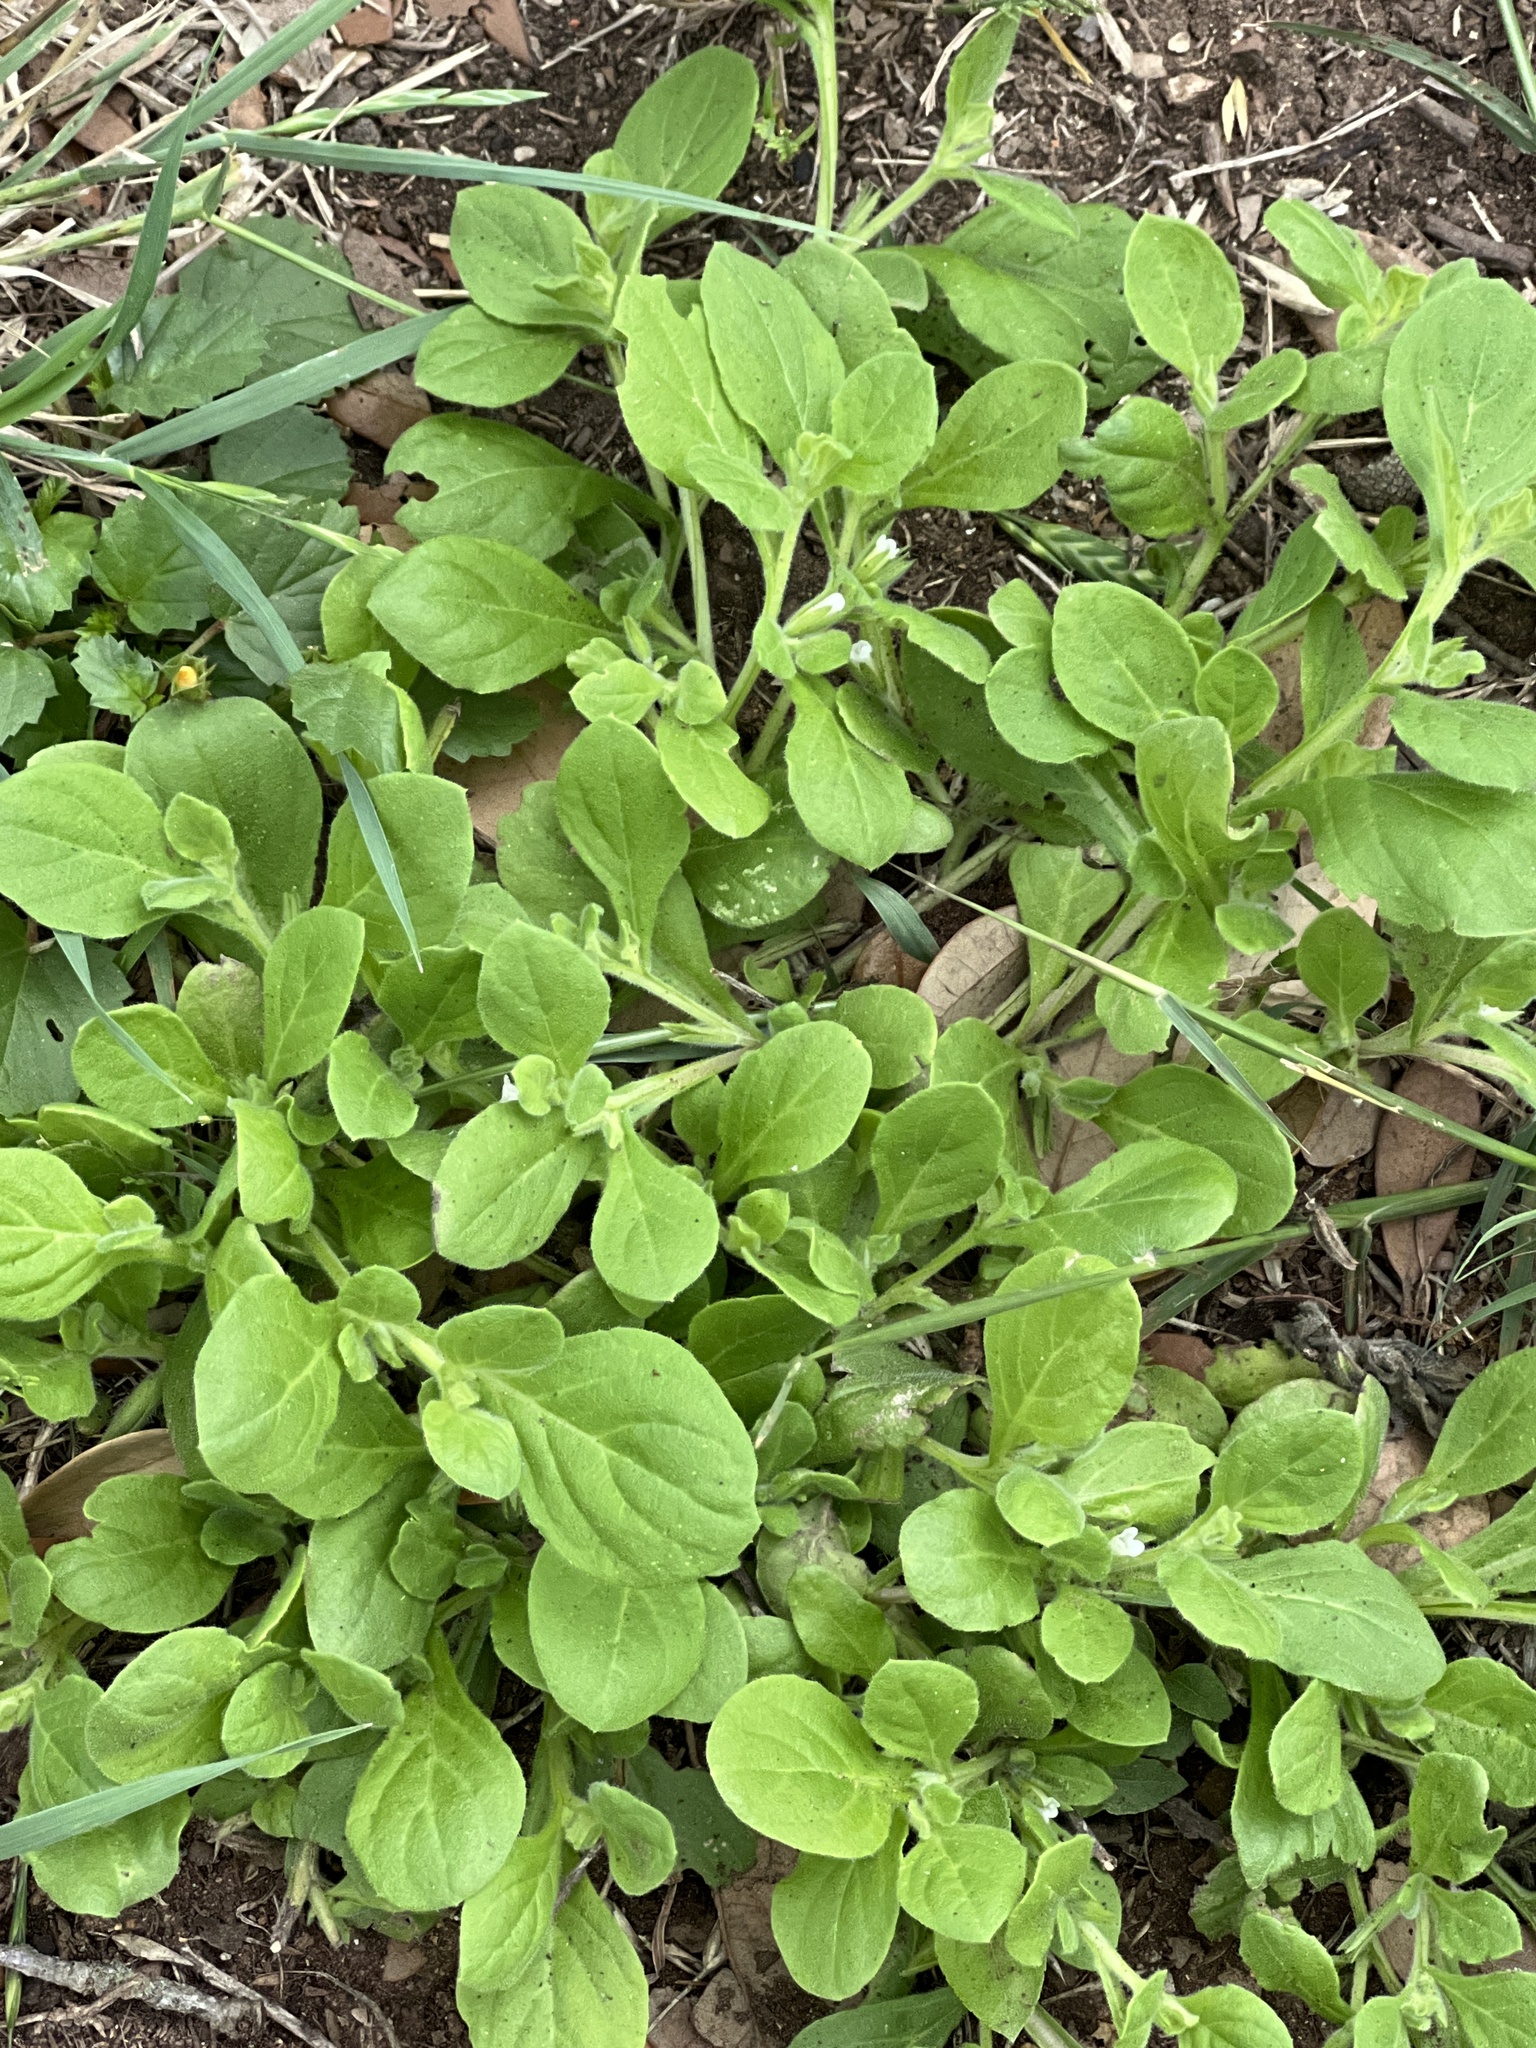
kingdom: Plantae
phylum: Tracheophyta
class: Magnoliopsida
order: Boraginales
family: Namaceae
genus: Nama
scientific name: Nama jamaicensis
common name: Jamaicanweed
